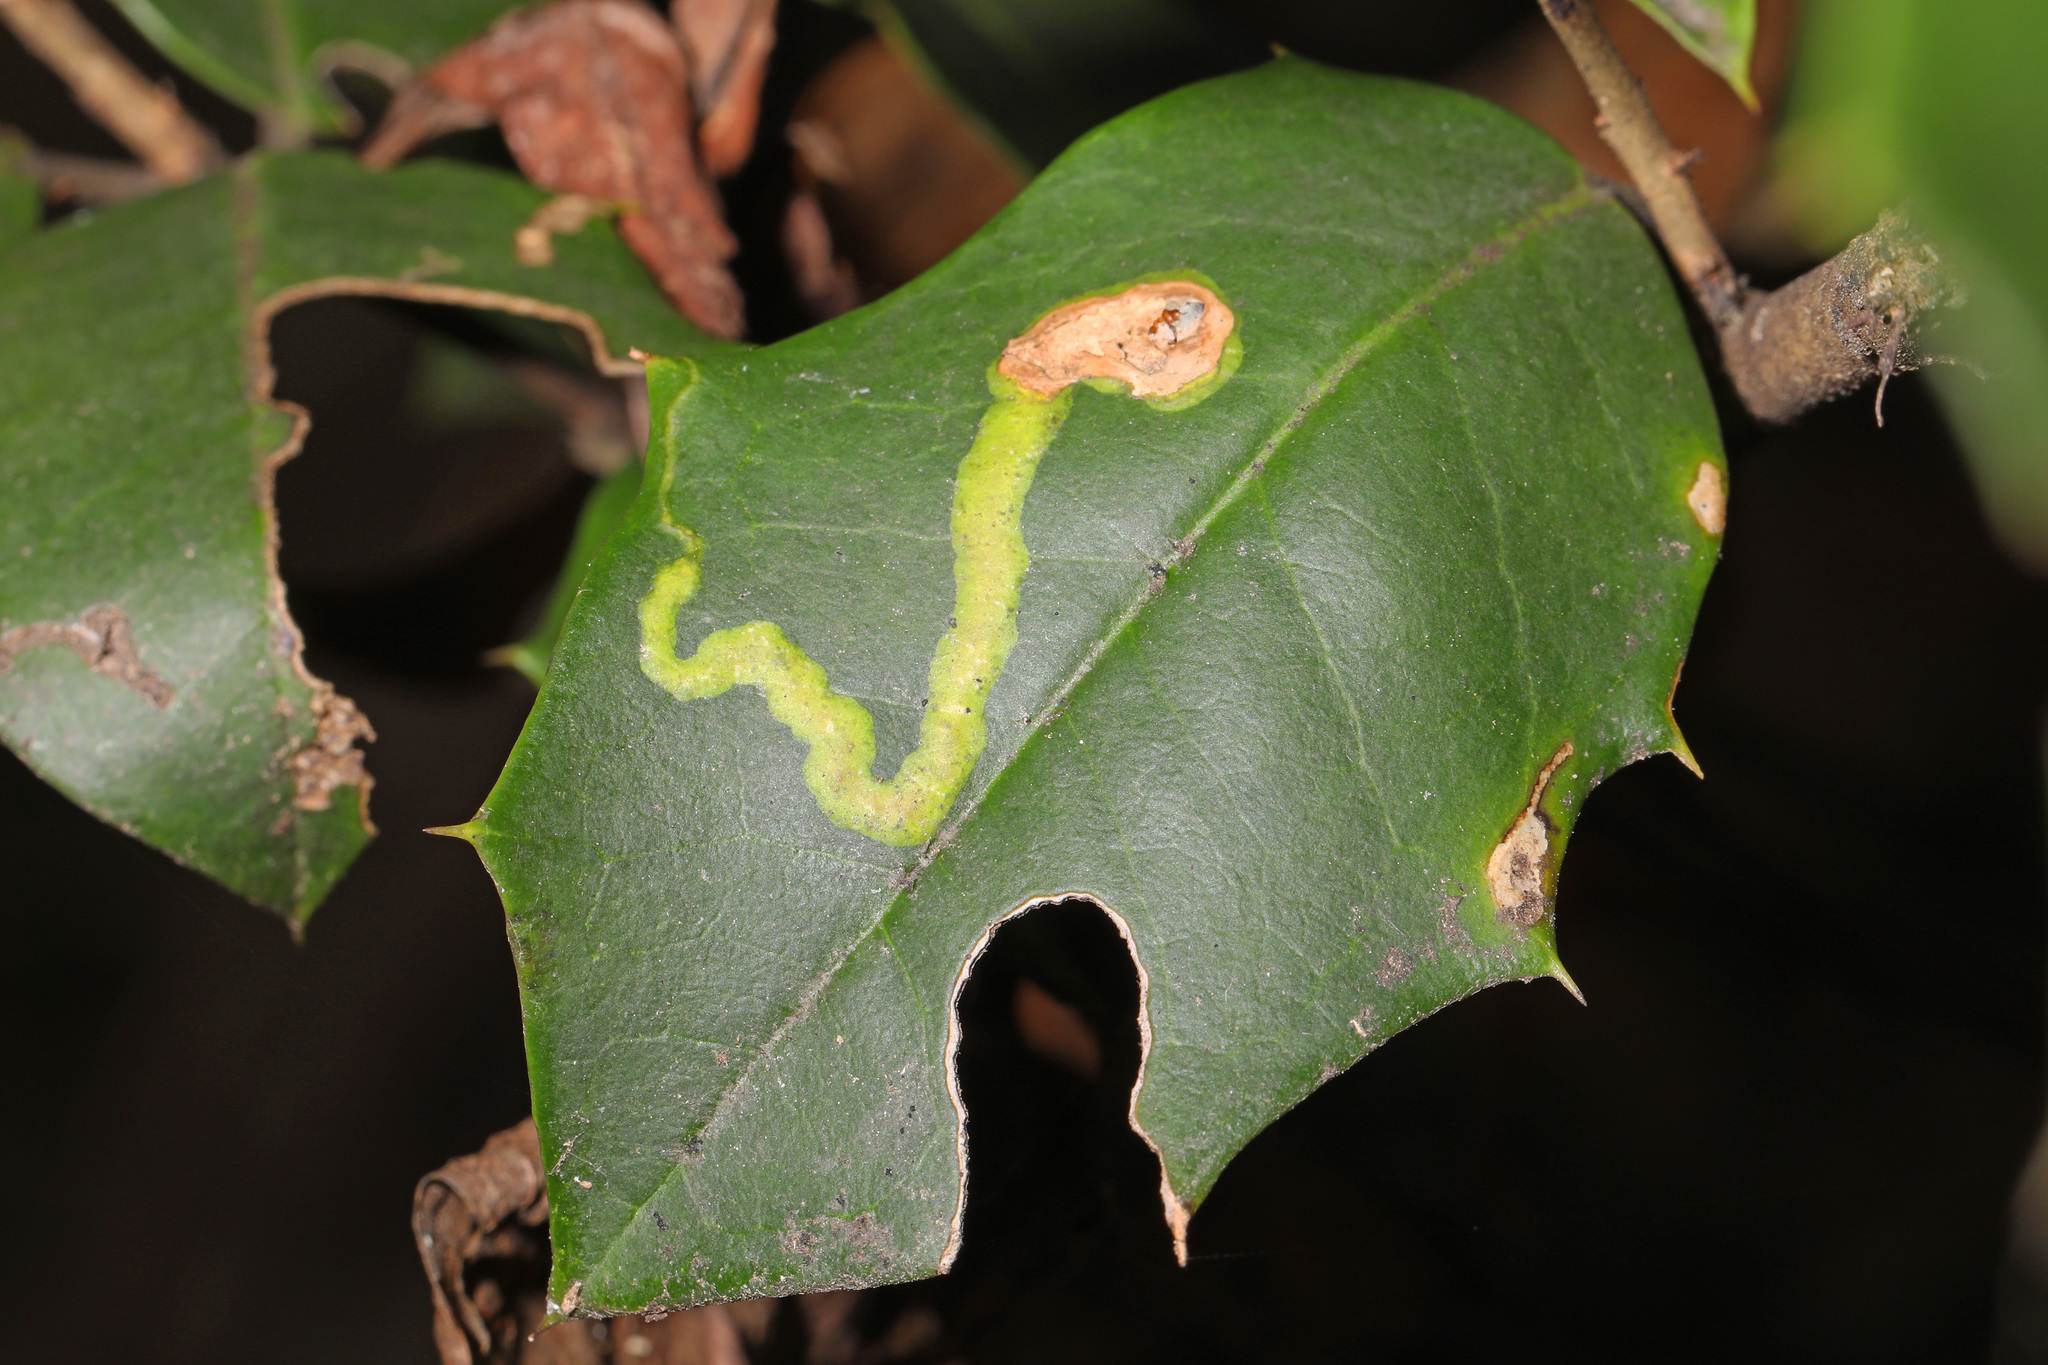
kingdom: Animalia
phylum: Arthropoda
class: Insecta
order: Diptera
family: Agromyzidae
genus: Phytomyza
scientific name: Phytomyza ilicicola
